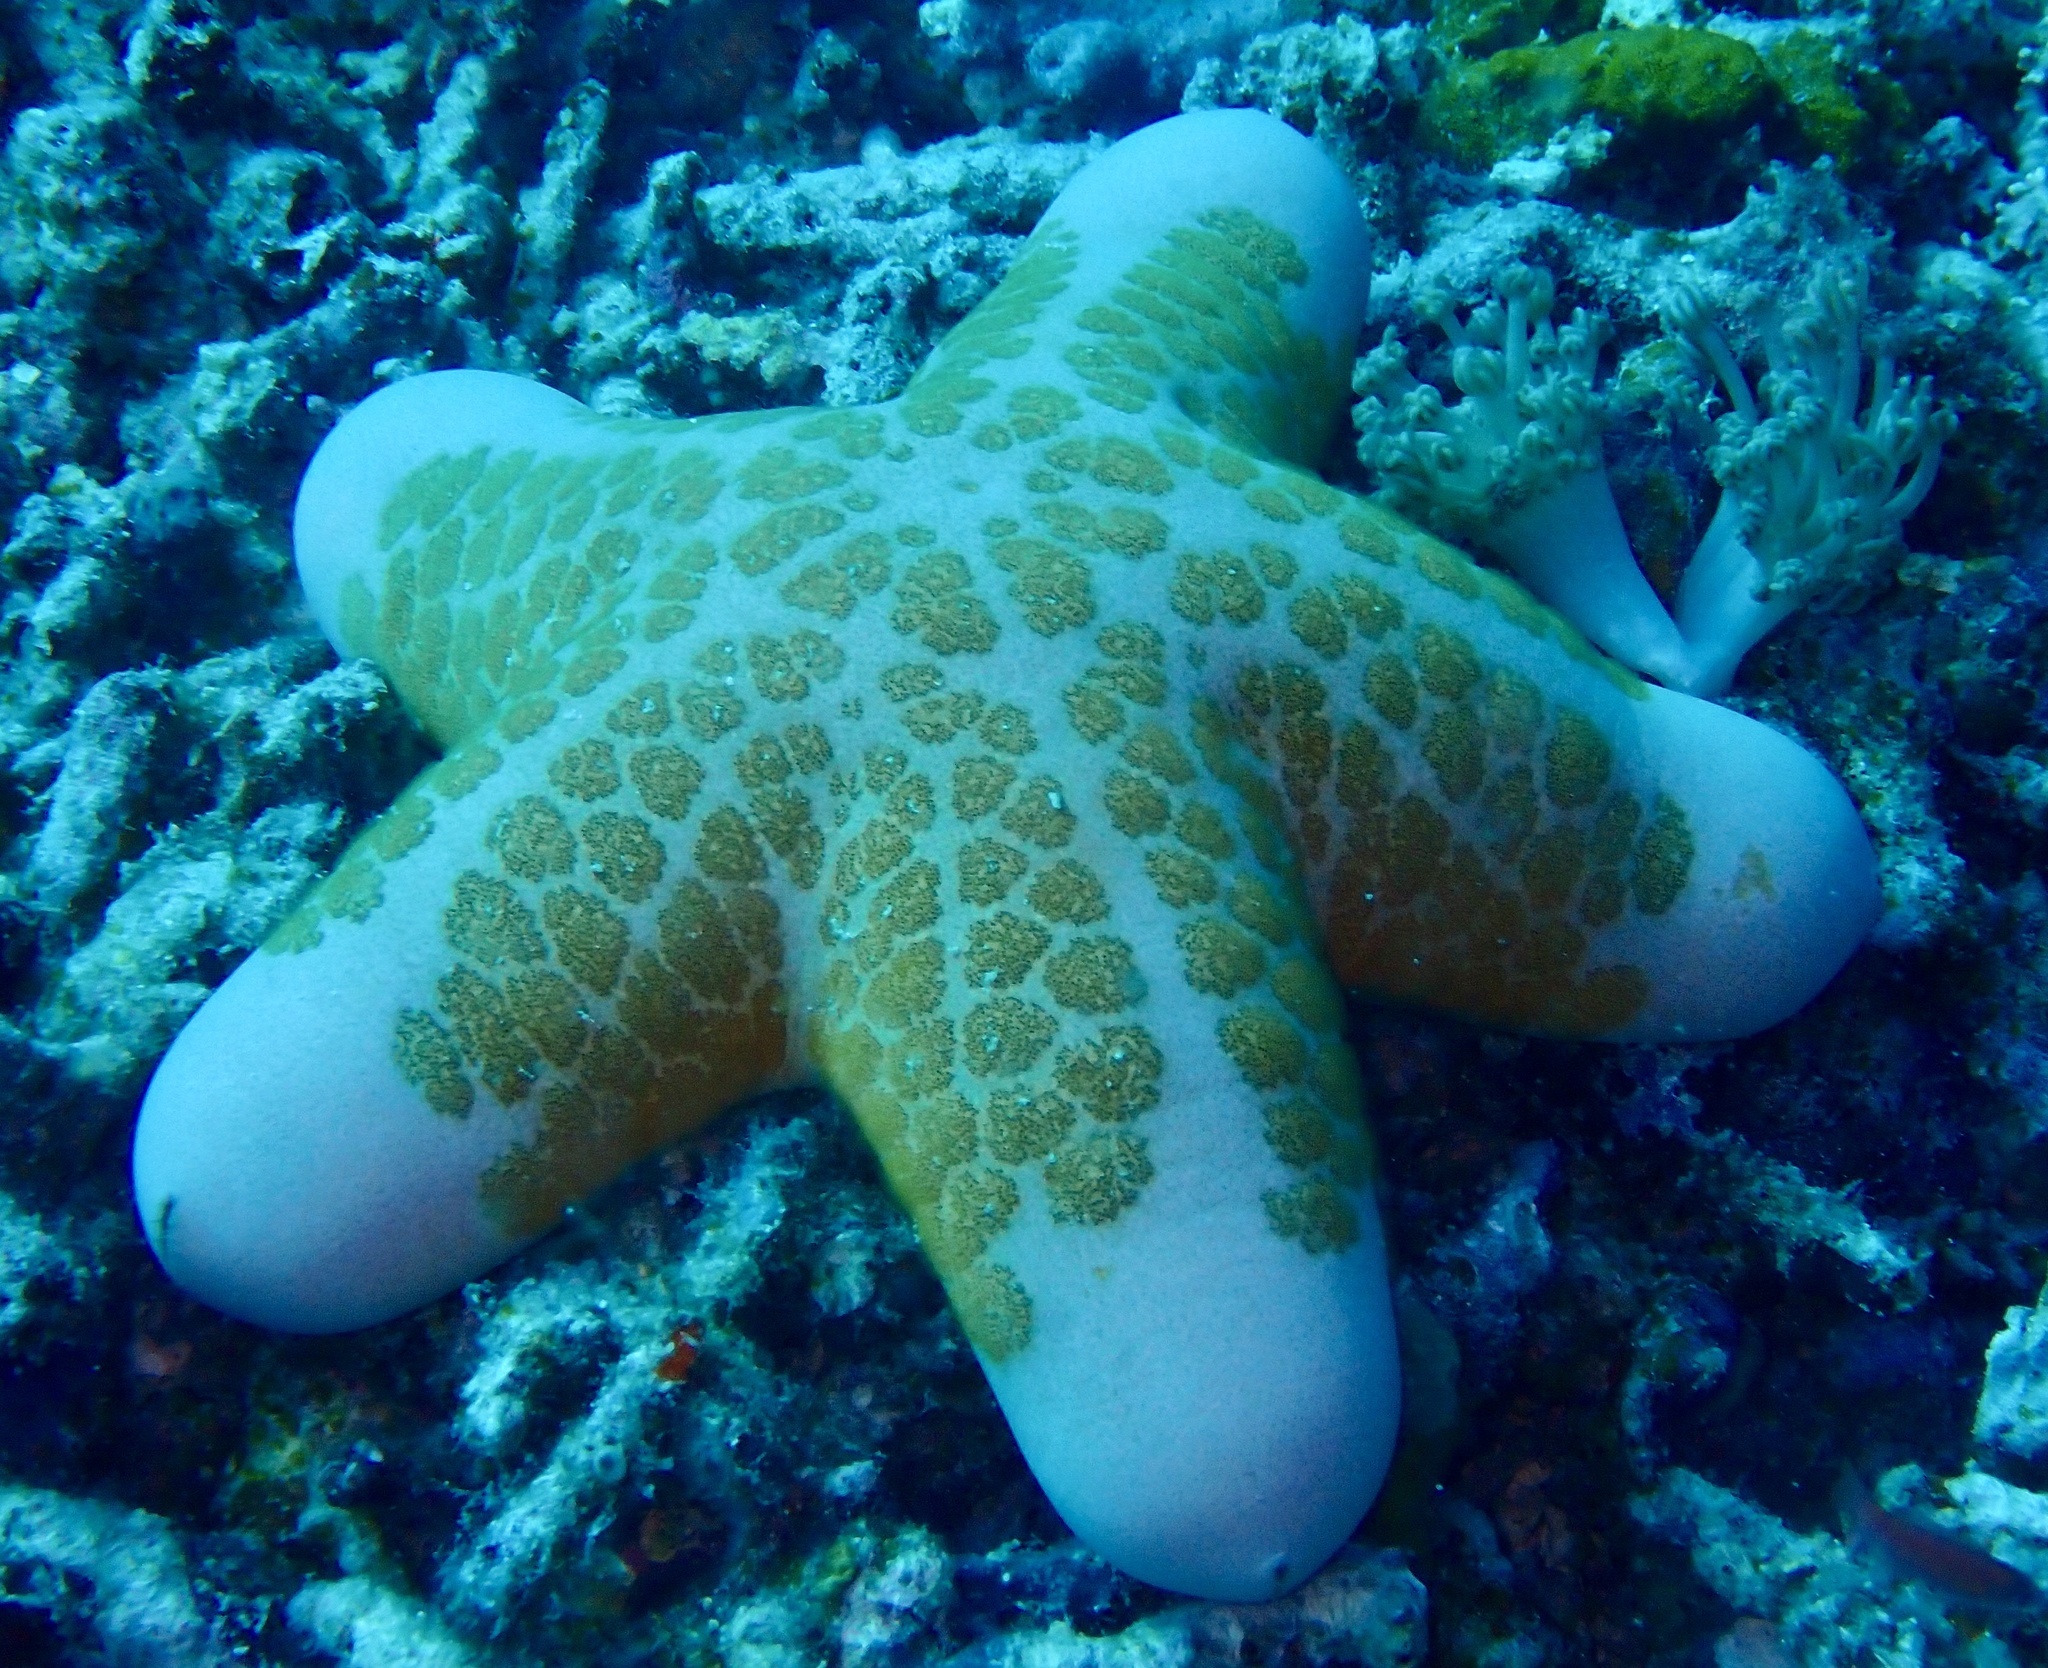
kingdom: Animalia
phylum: Echinodermata
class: Asteroidea
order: Valvatida
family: Oreasteridae
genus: Choriaster
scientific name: Choriaster granulatus
